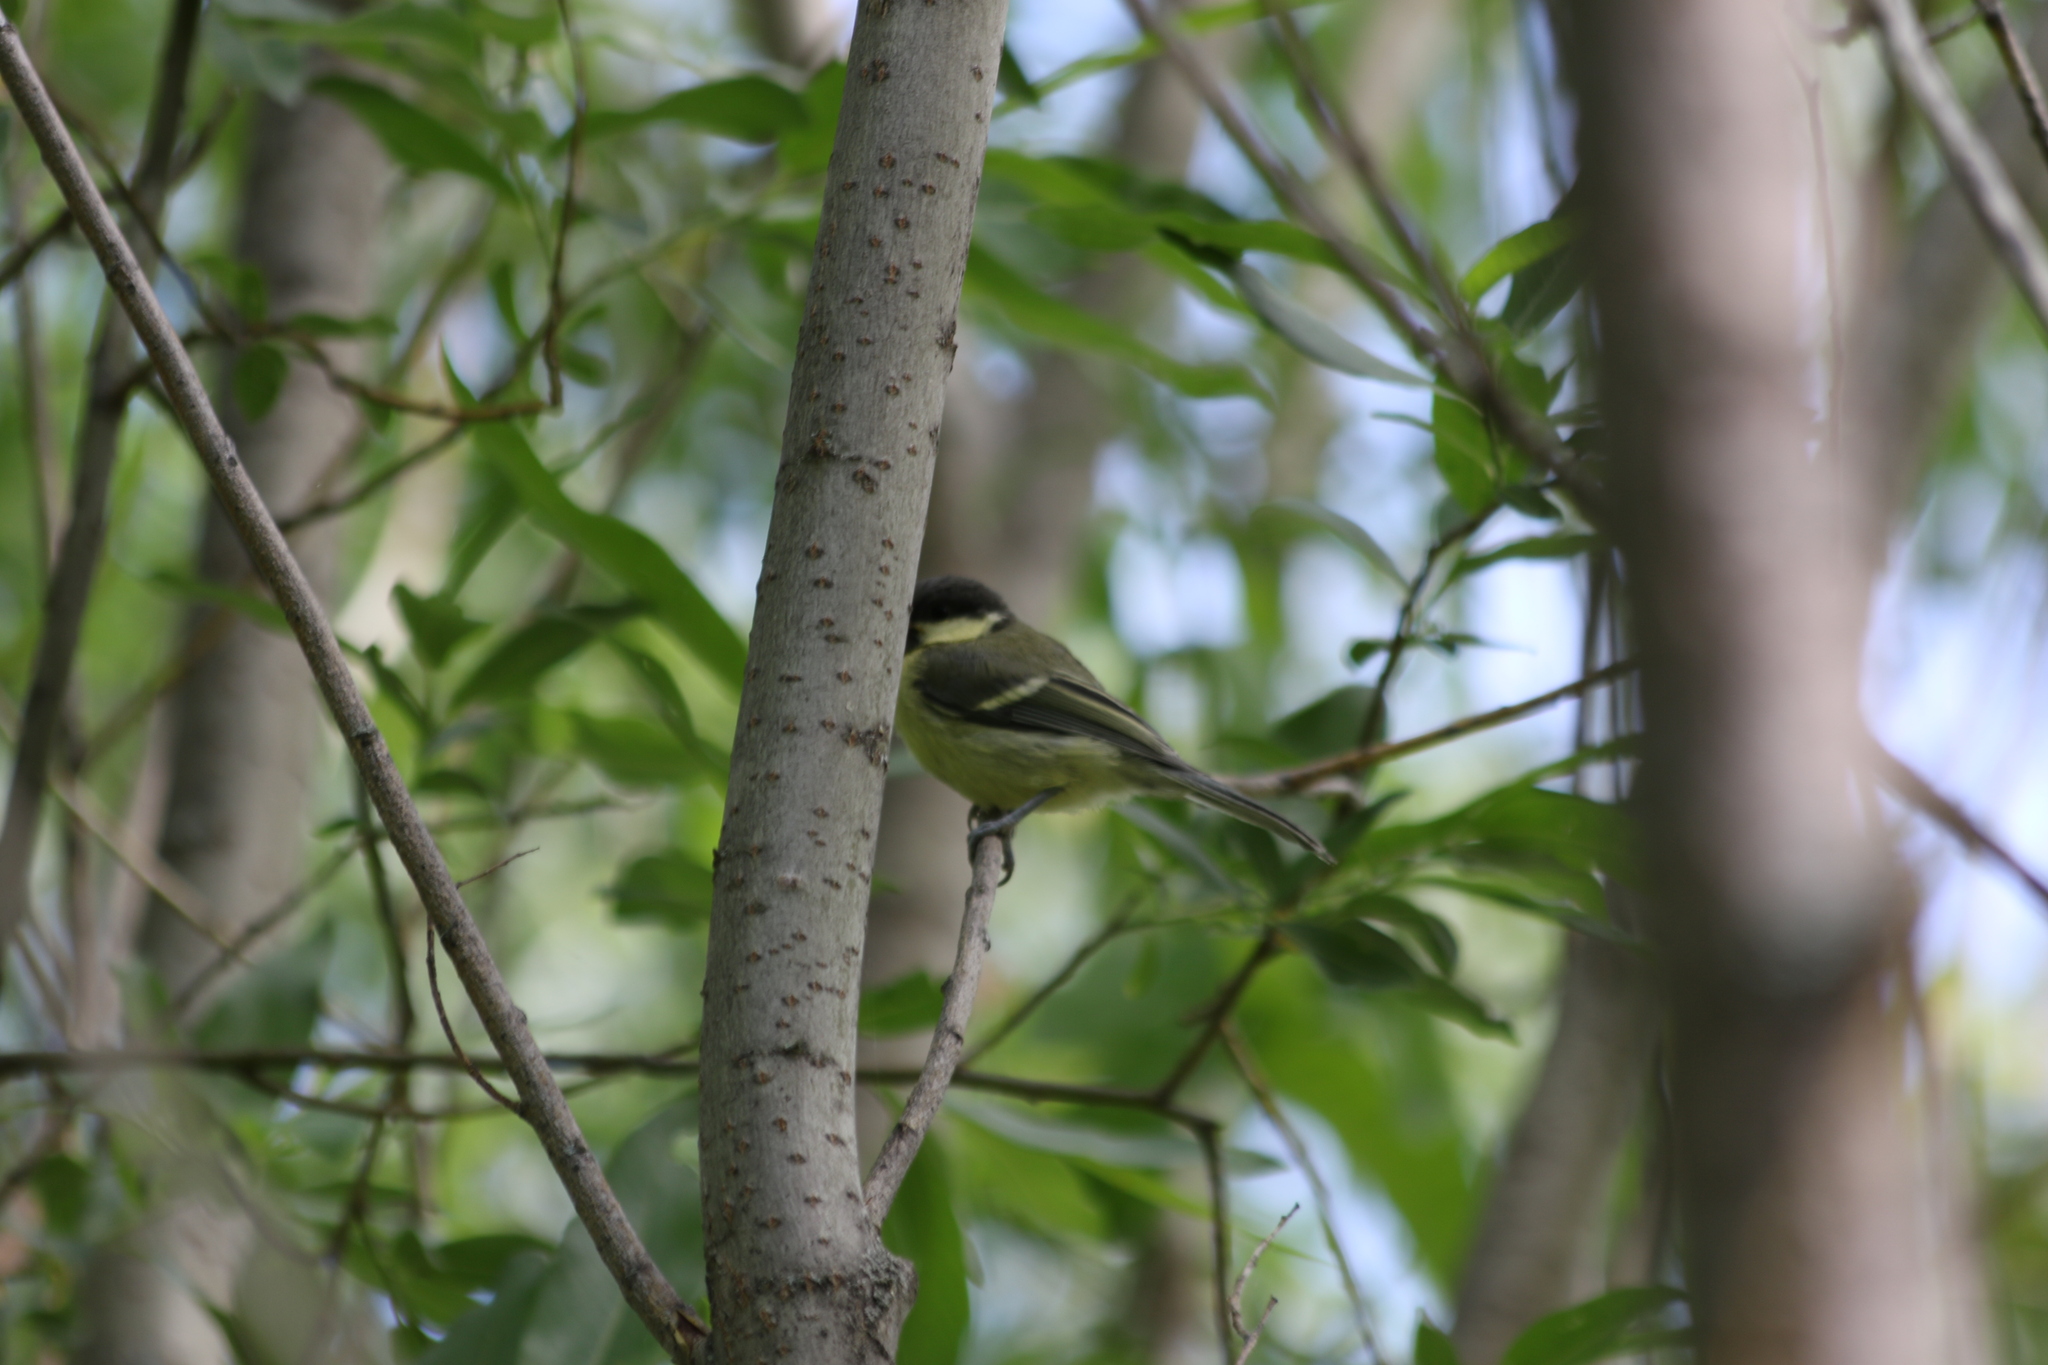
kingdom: Animalia
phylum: Chordata
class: Aves
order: Passeriformes
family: Paridae
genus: Parus
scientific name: Parus major
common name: Great tit
